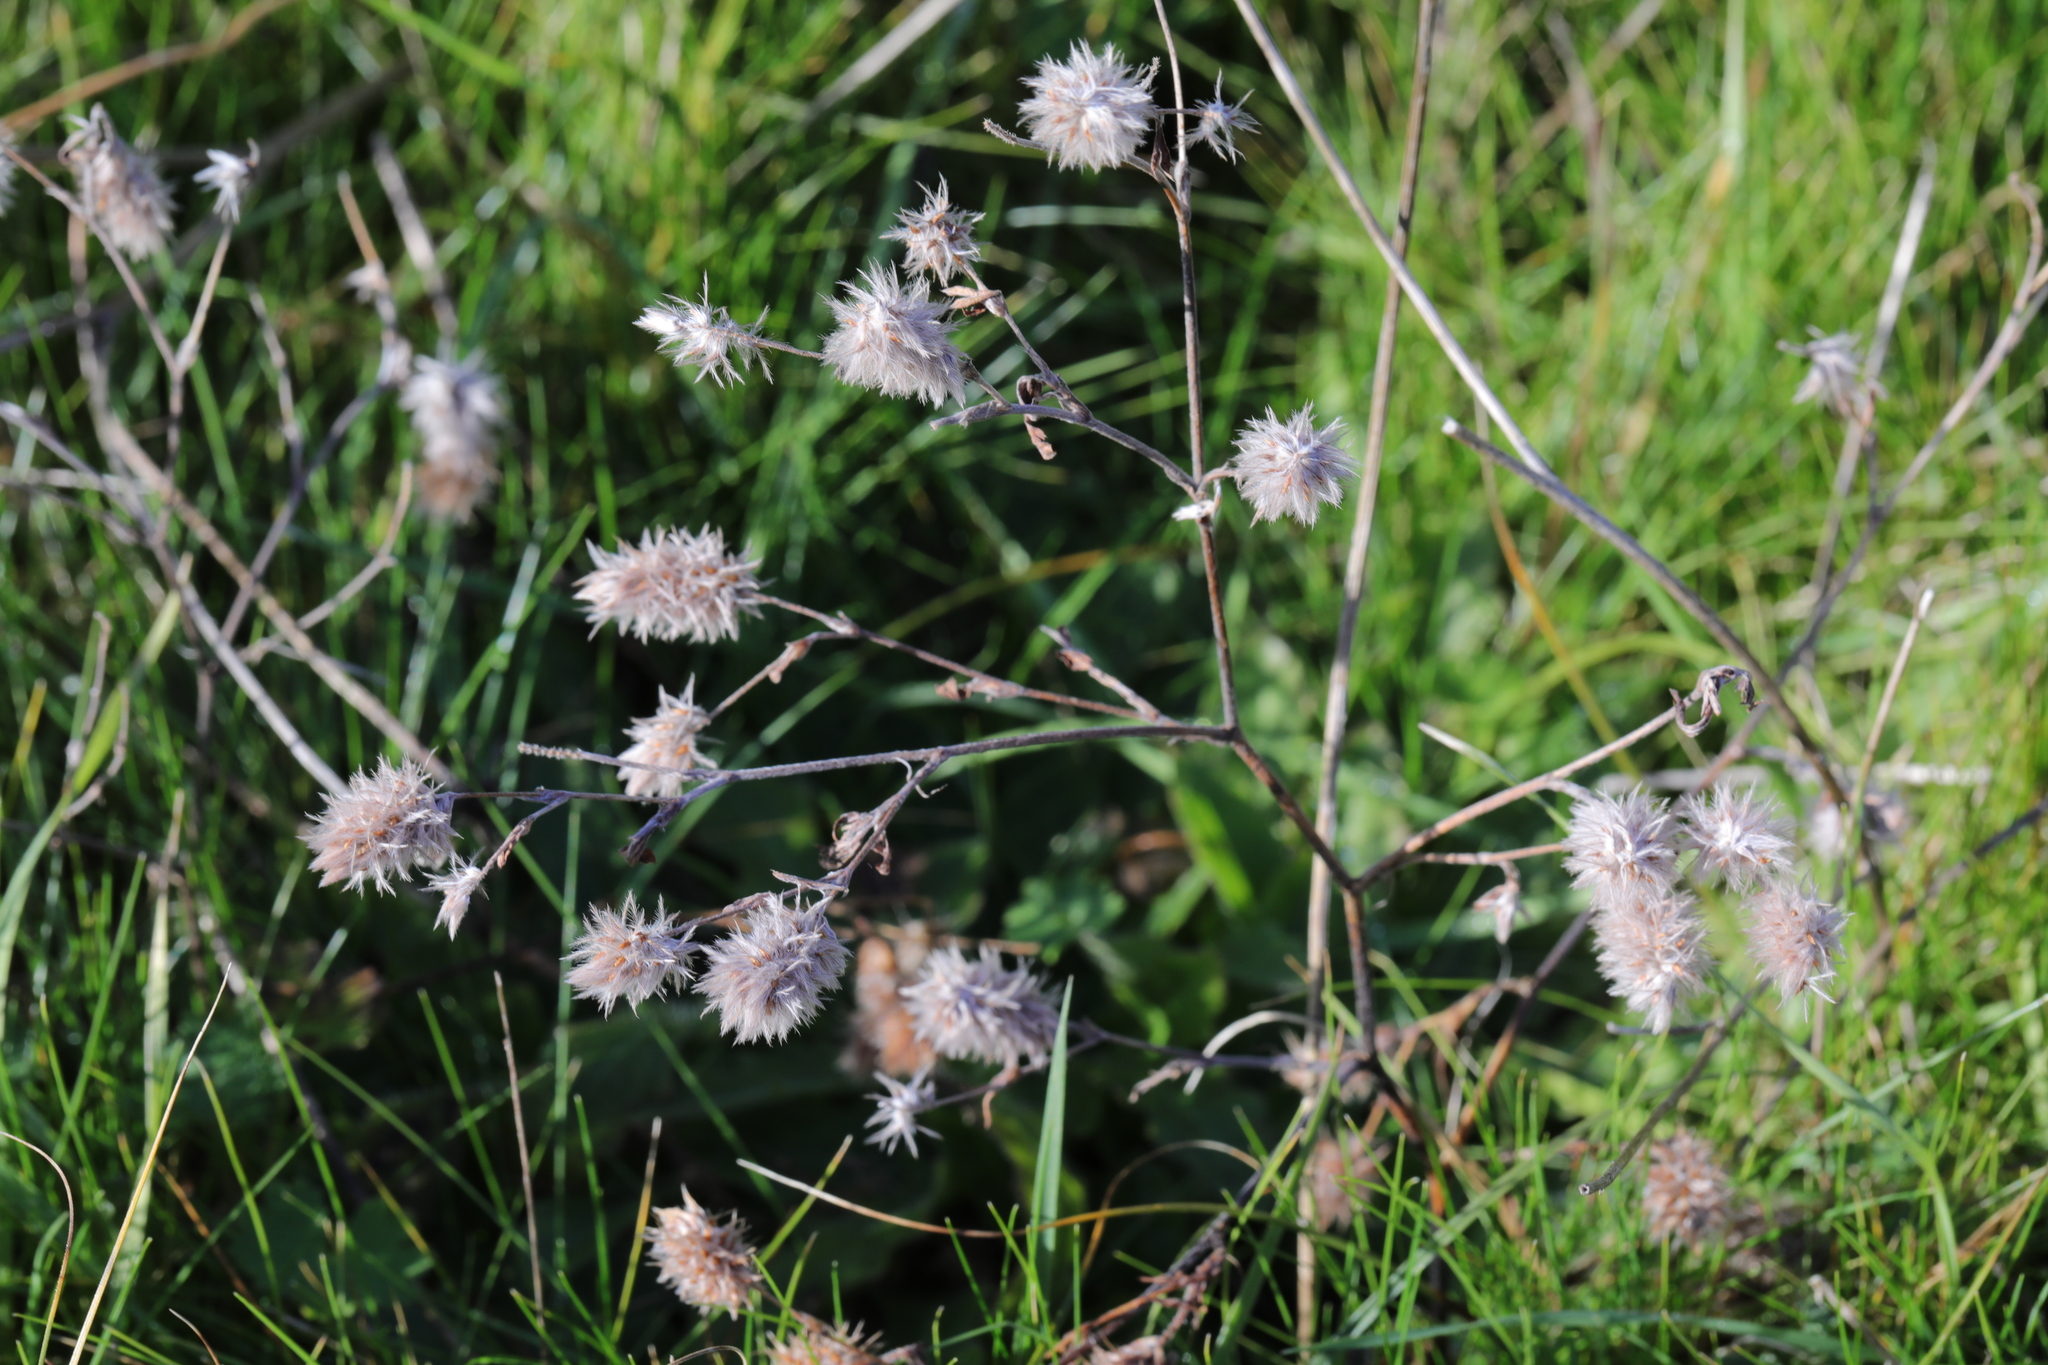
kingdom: Plantae
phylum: Tracheophyta
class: Magnoliopsida
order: Fabales
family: Fabaceae
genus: Trifolium
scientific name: Trifolium arvense
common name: Hare's-foot clover
